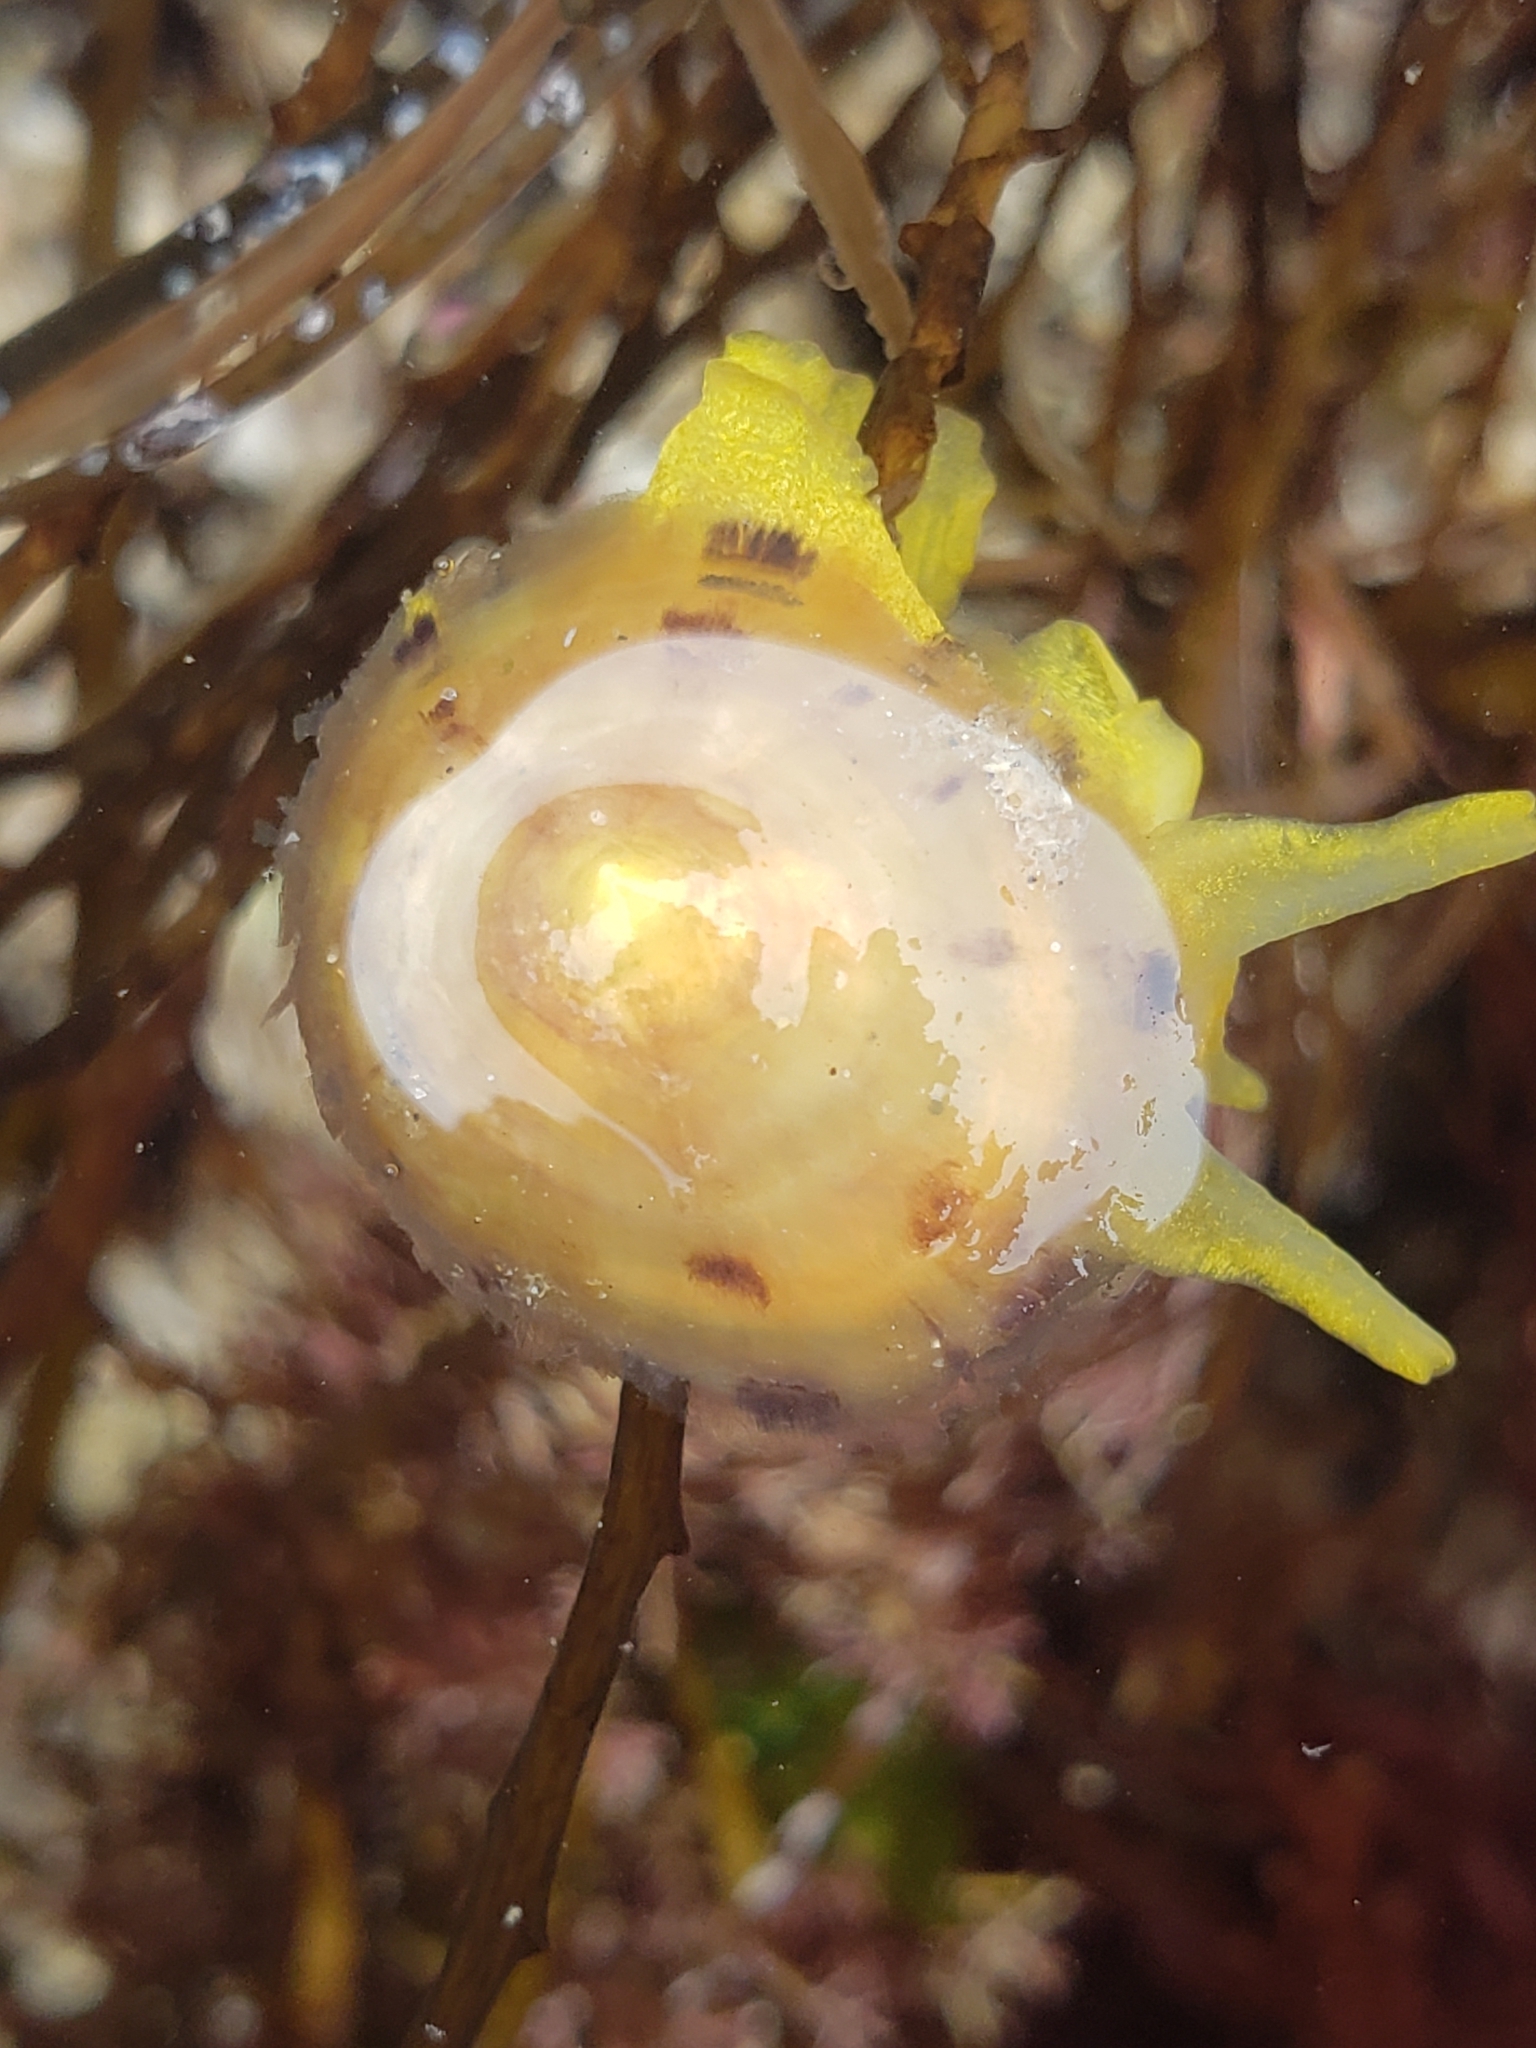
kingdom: Animalia
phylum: Mollusca
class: Gastropoda
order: Umbraculida
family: Tylodinidae
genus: Tylodina
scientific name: Tylodina fungina
